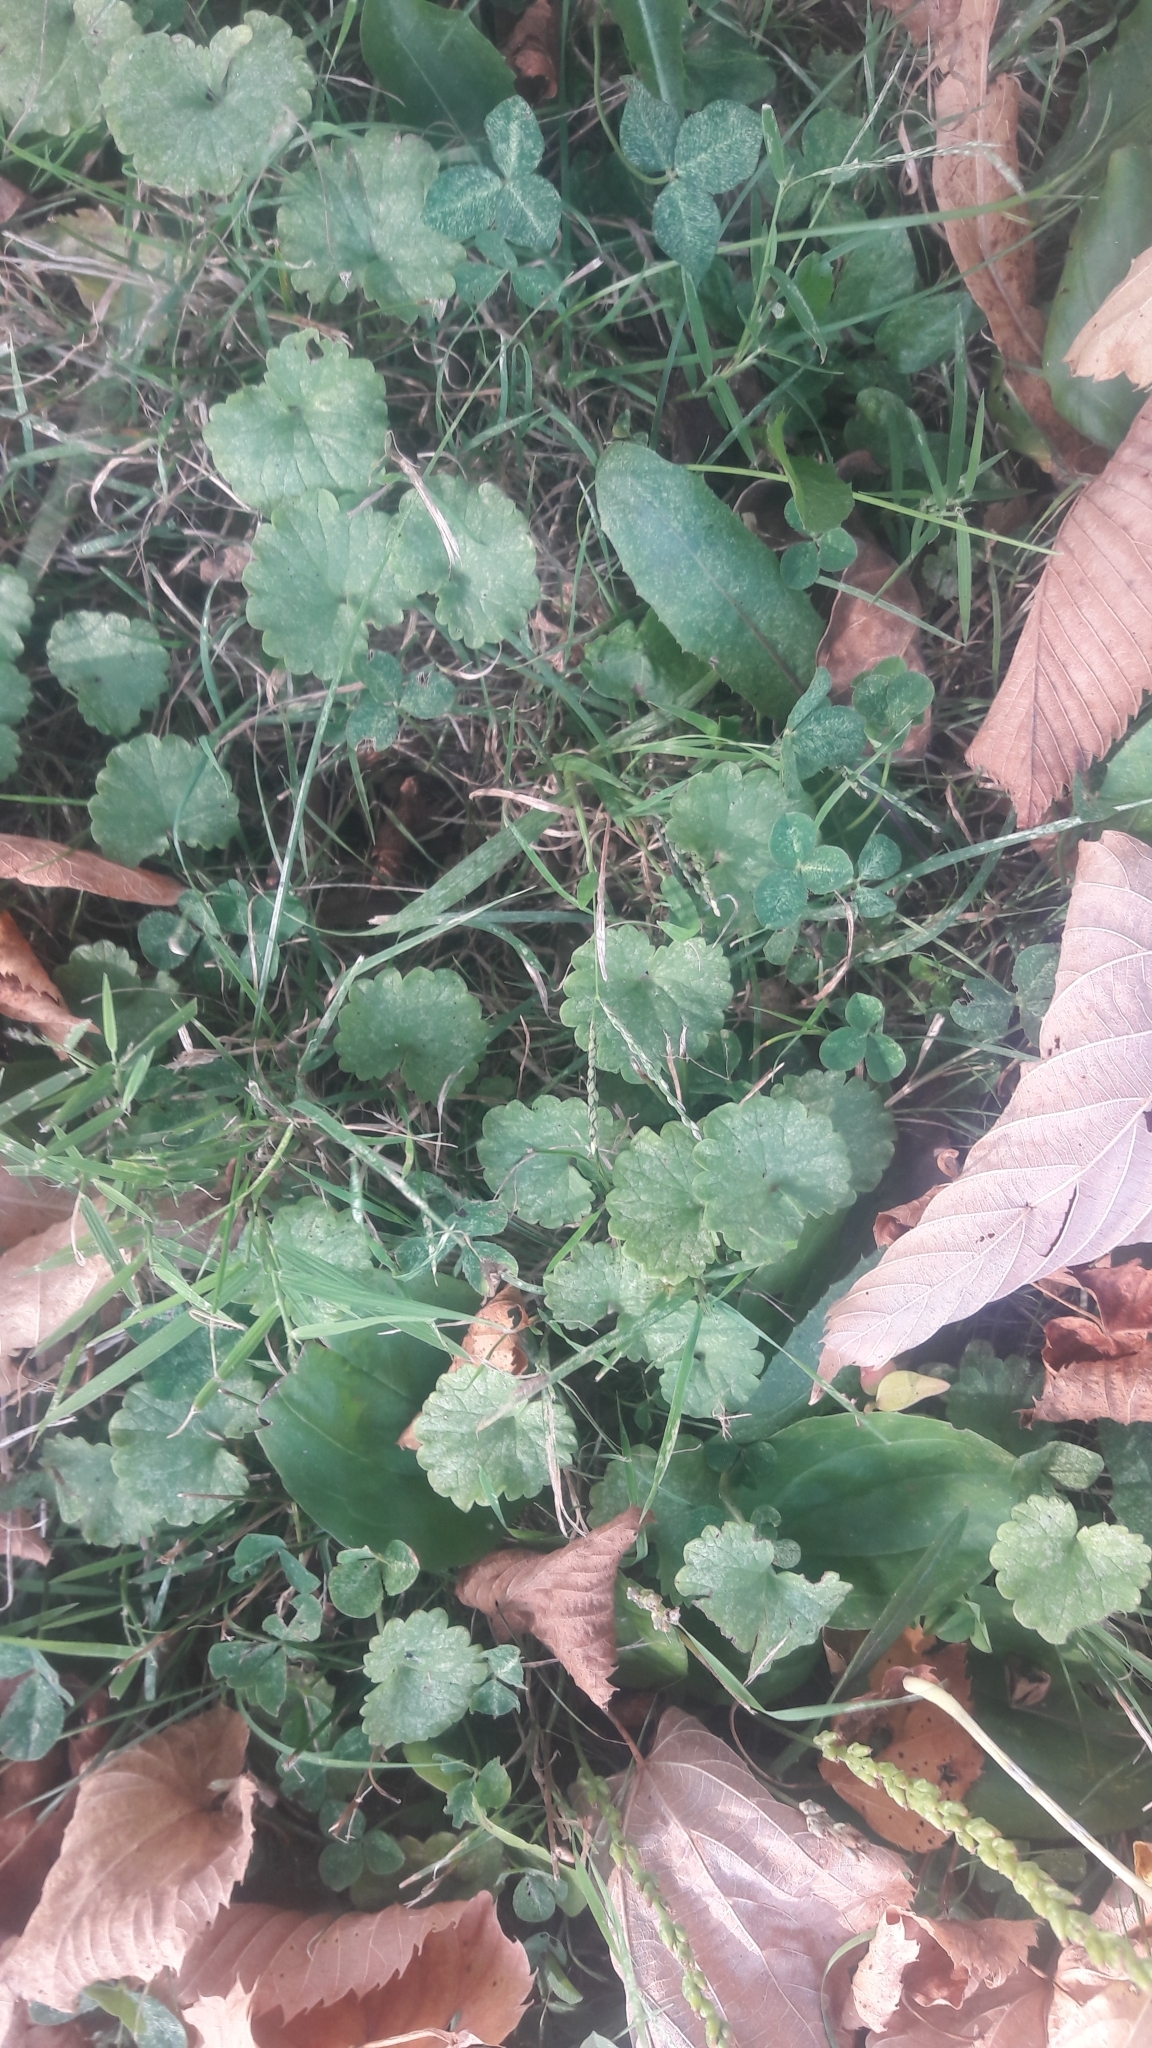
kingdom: Plantae
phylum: Tracheophyta
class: Magnoliopsida
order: Lamiales
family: Lamiaceae
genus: Glechoma
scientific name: Glechoma hederacea
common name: Ground ivy
